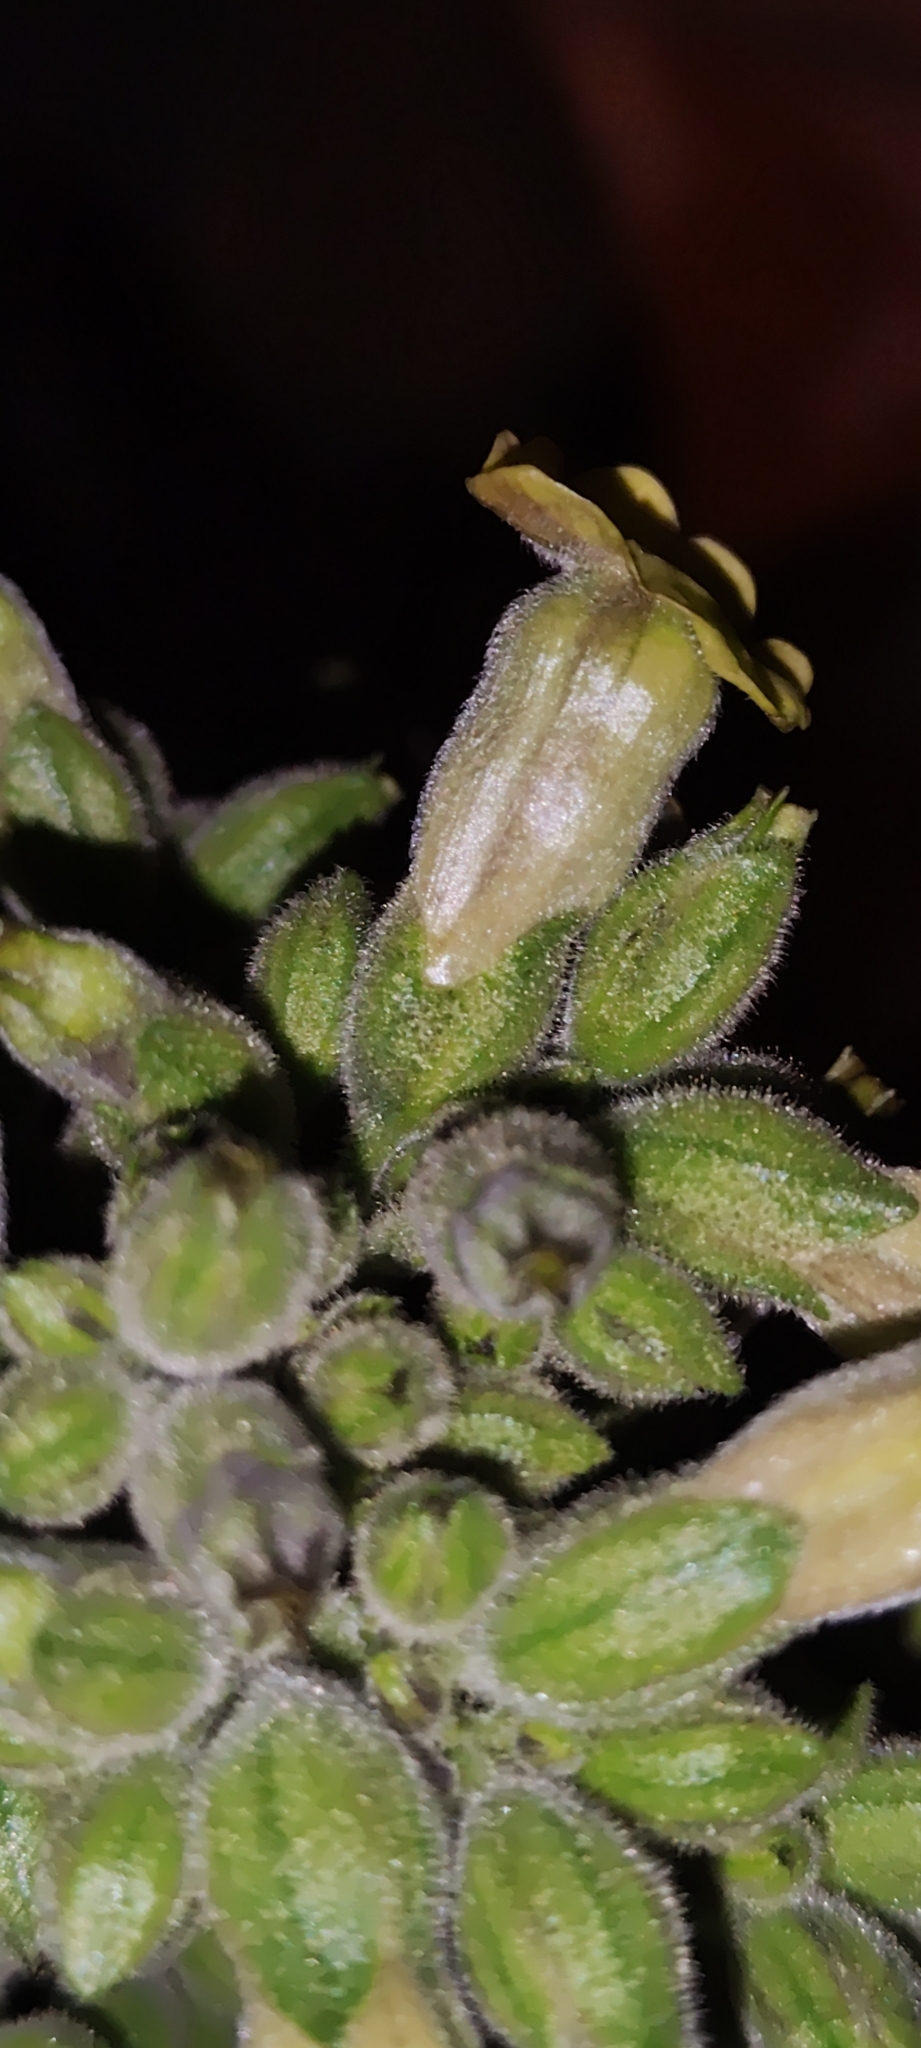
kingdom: Plantae
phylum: Tracheophyta
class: Magnoliopsida
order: Solanales
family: Solanaceae
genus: Nicotiana
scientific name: Nicotiana rustica
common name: Wild tobacco
